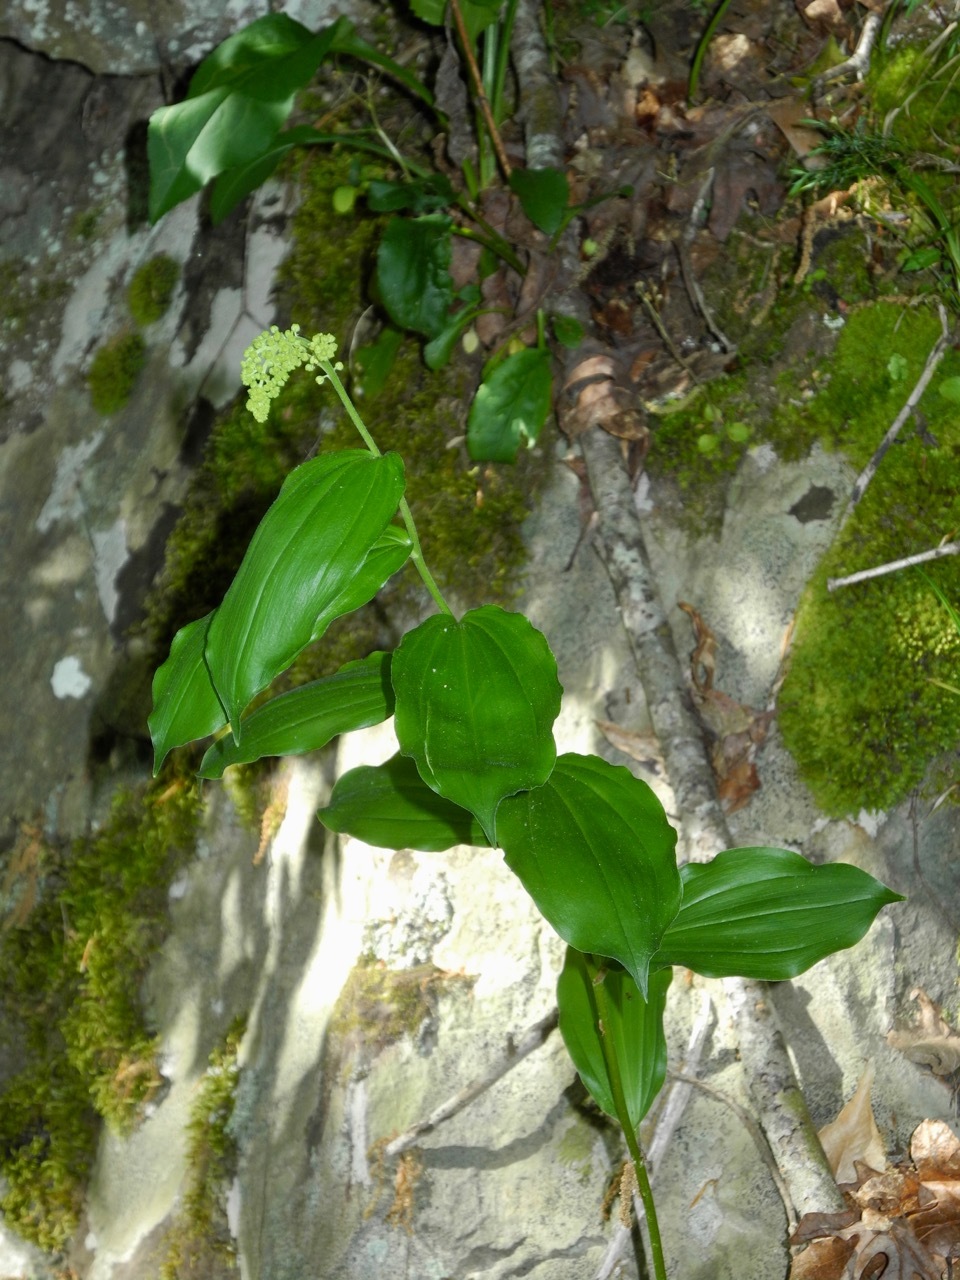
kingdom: Plantae
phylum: Tracheophyta
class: Liliopsida
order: Asparagales
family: Asparagaceae
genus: Maianthemum
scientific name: Maianthemum racemosum
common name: False spikenard
